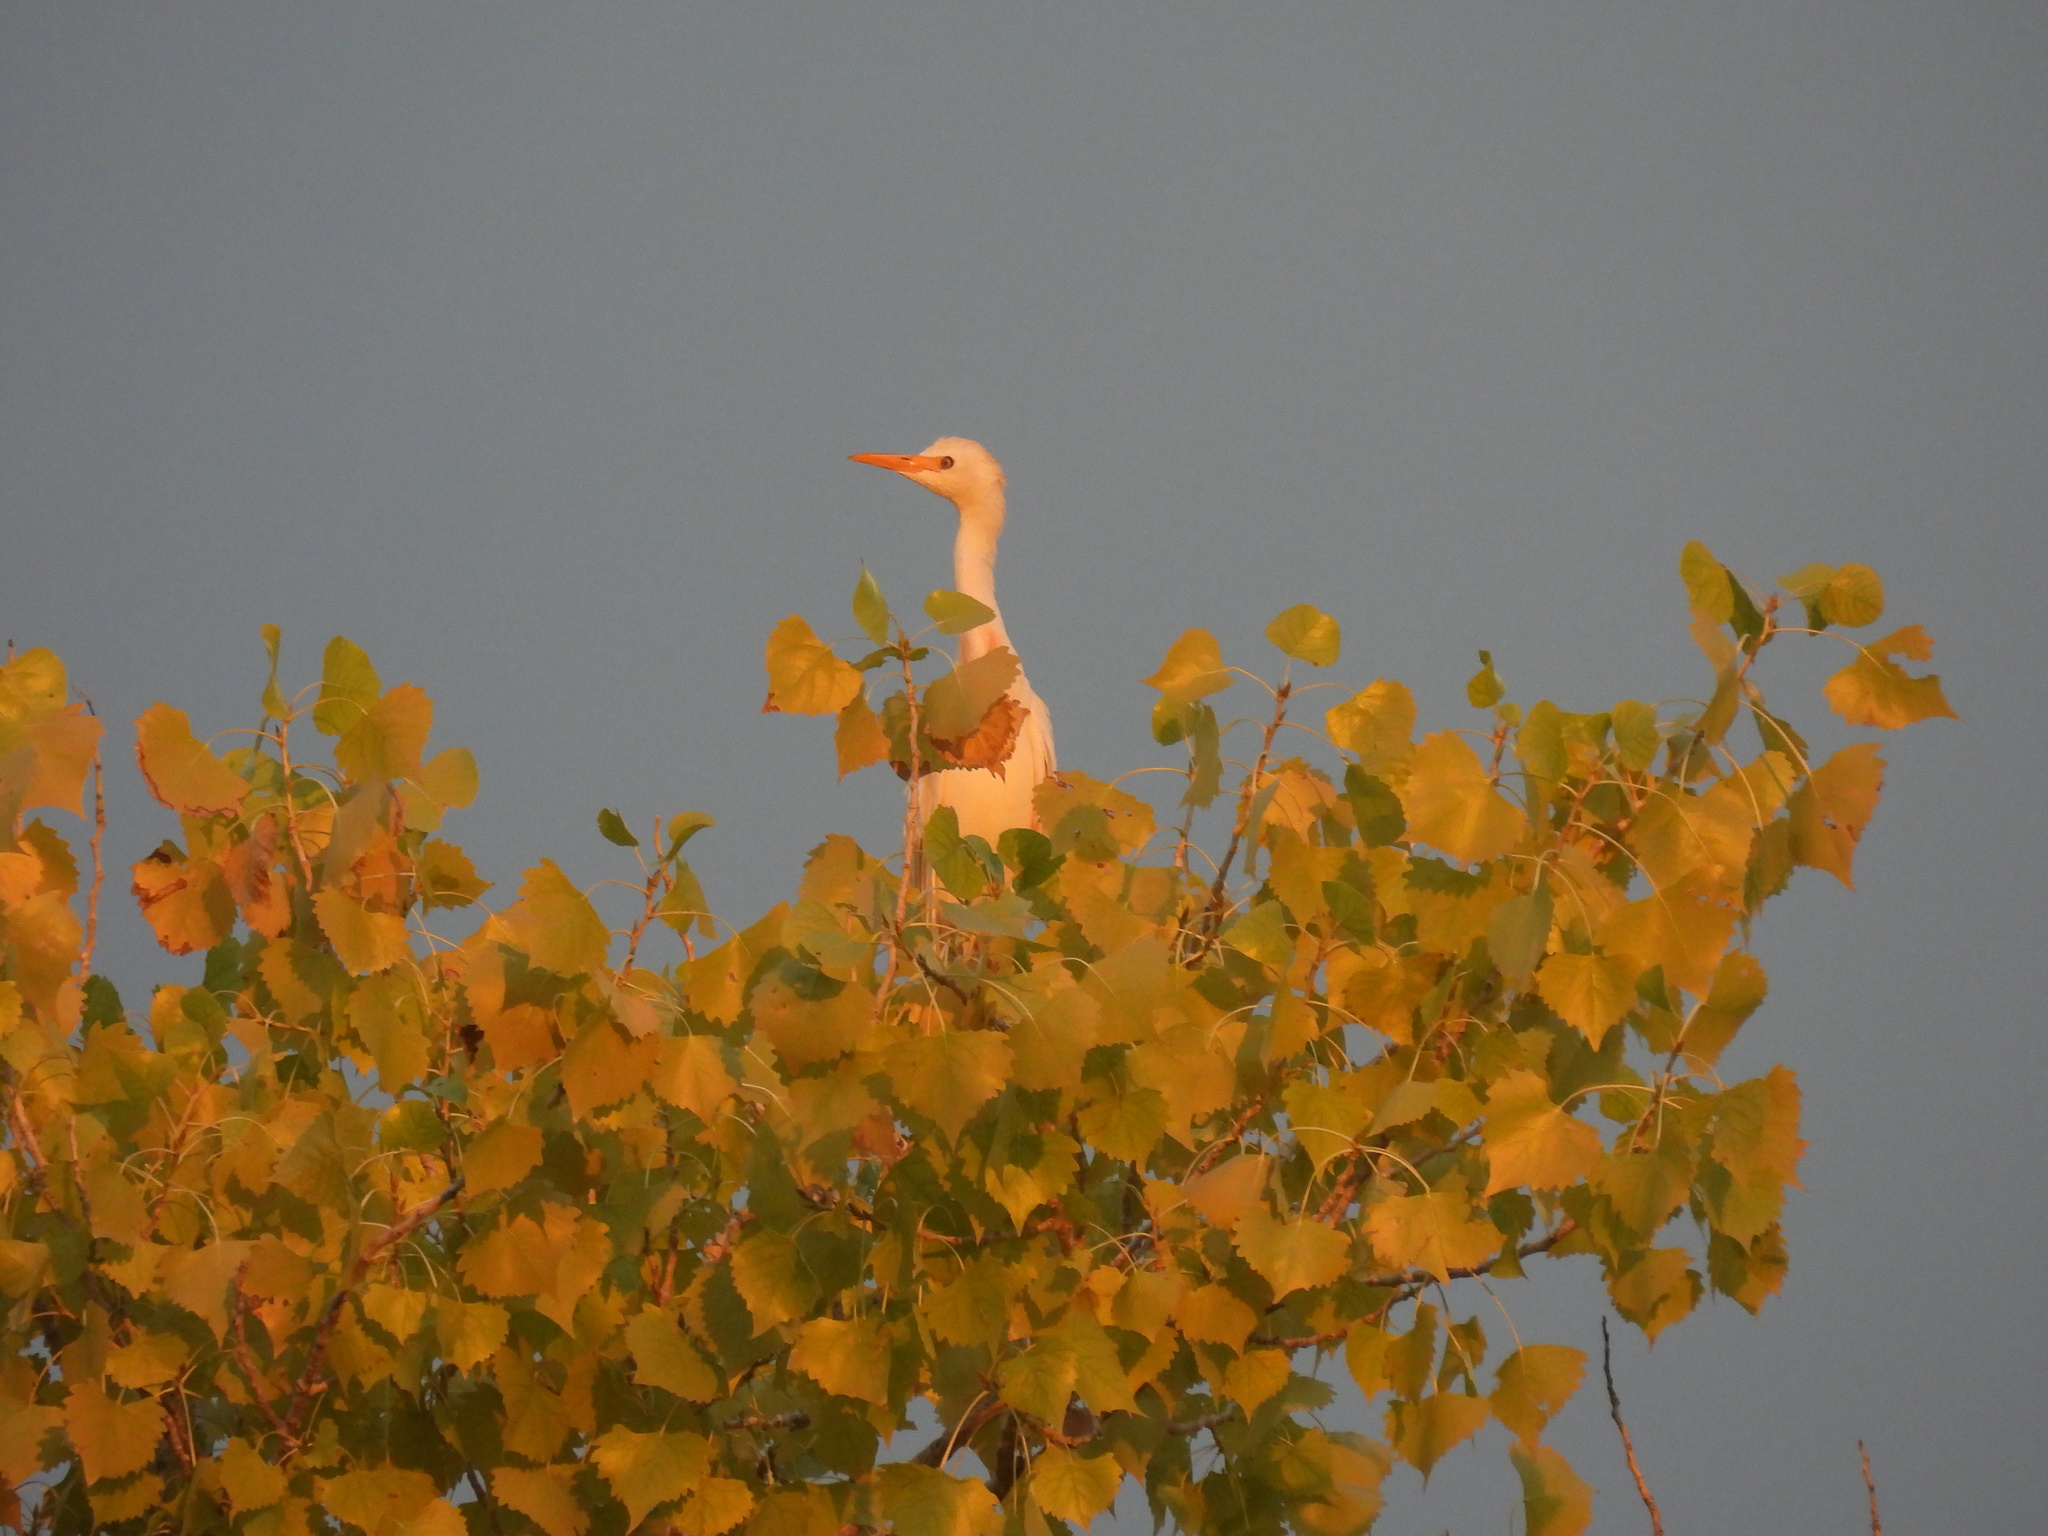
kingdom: Animalia
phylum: Chordata
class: Aves
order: Pelecaniformes
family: Ardeidae
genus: Bubulcus
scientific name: Bubulcus ibis
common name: Cattle egret
